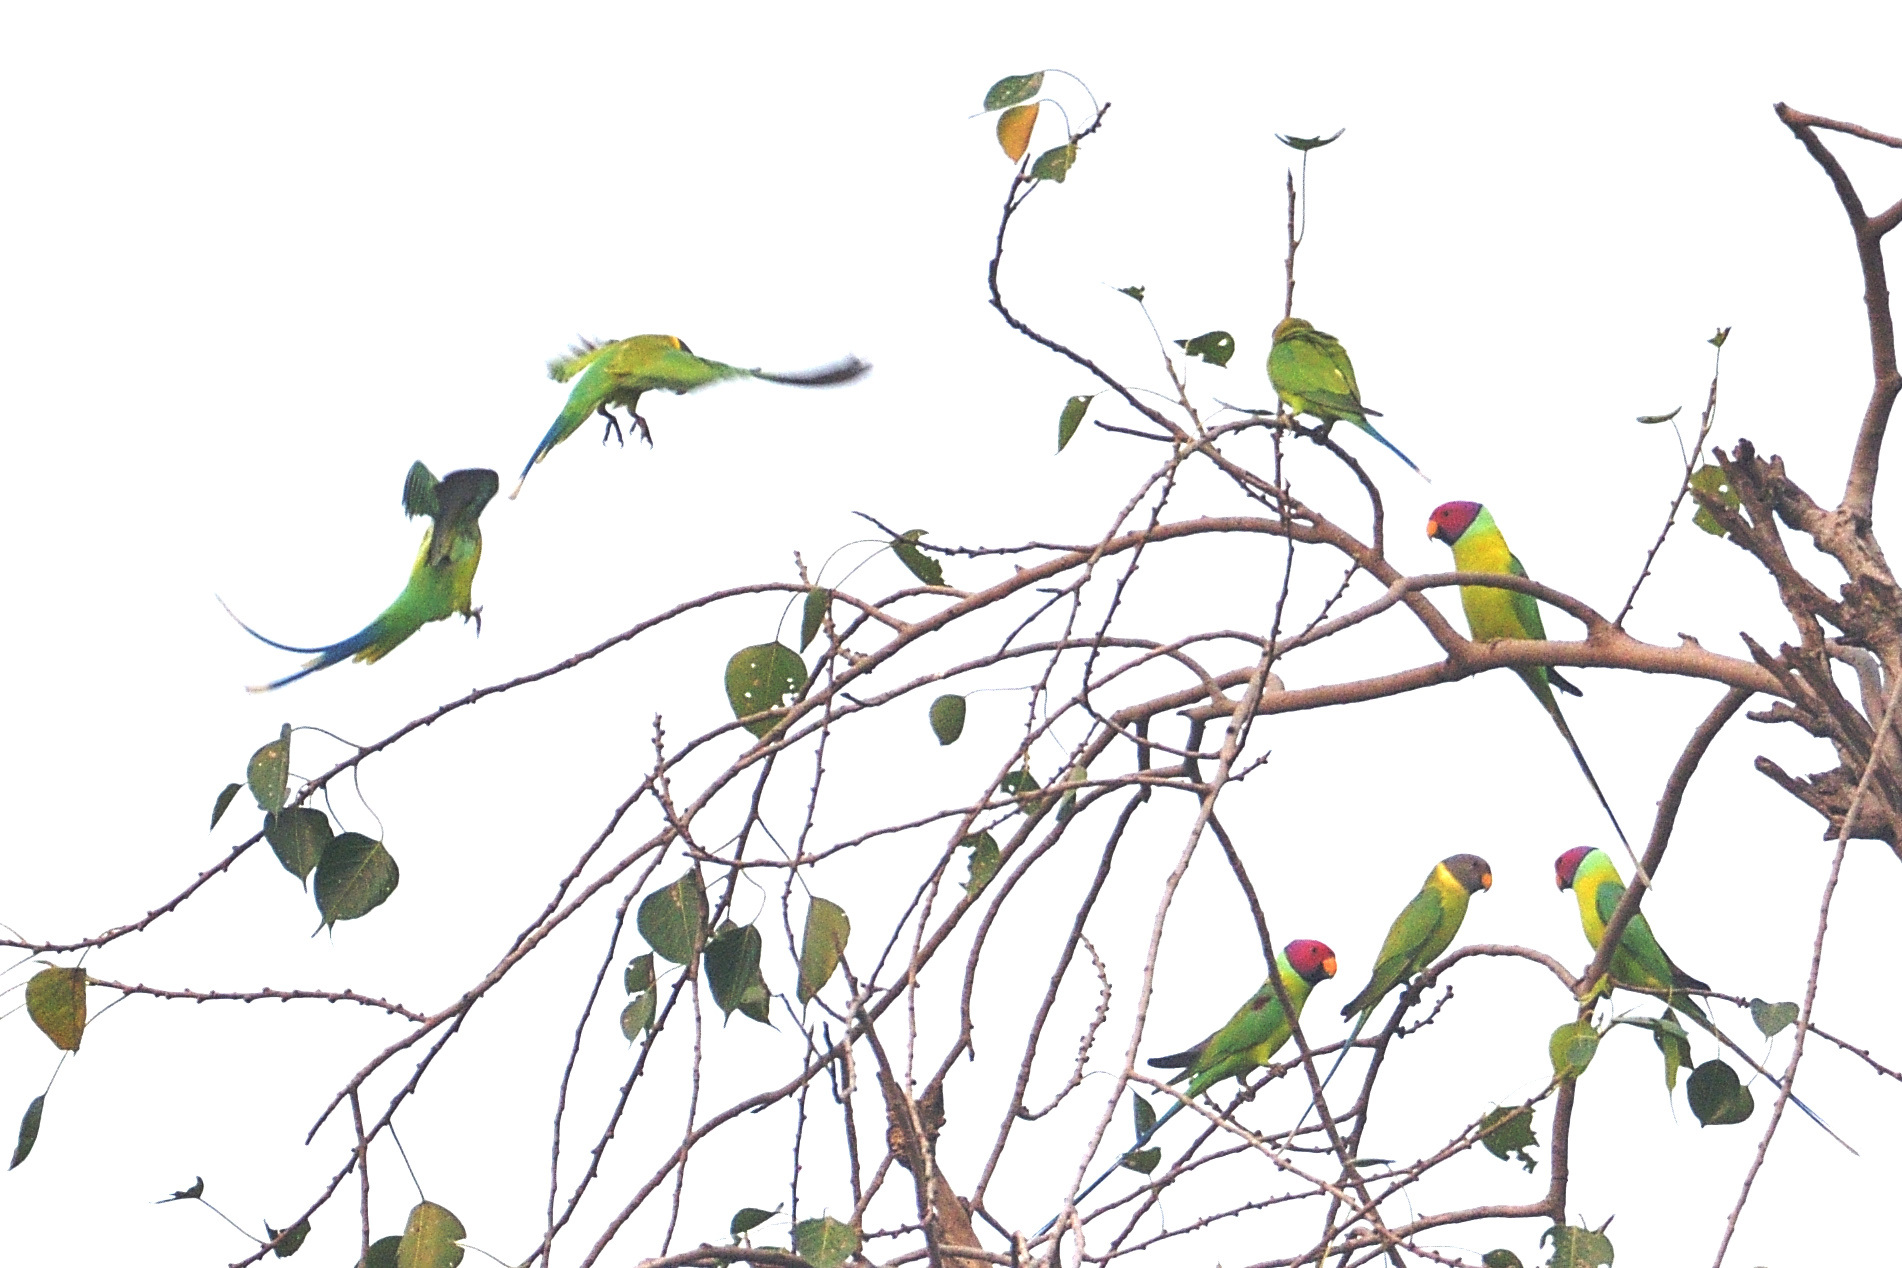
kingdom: Animalia
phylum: Chordata
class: Aves
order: Psittaciformes
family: Psittacidae
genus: Psittacula
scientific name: Psittacula cyanocephala
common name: Plum-headed parakeet
